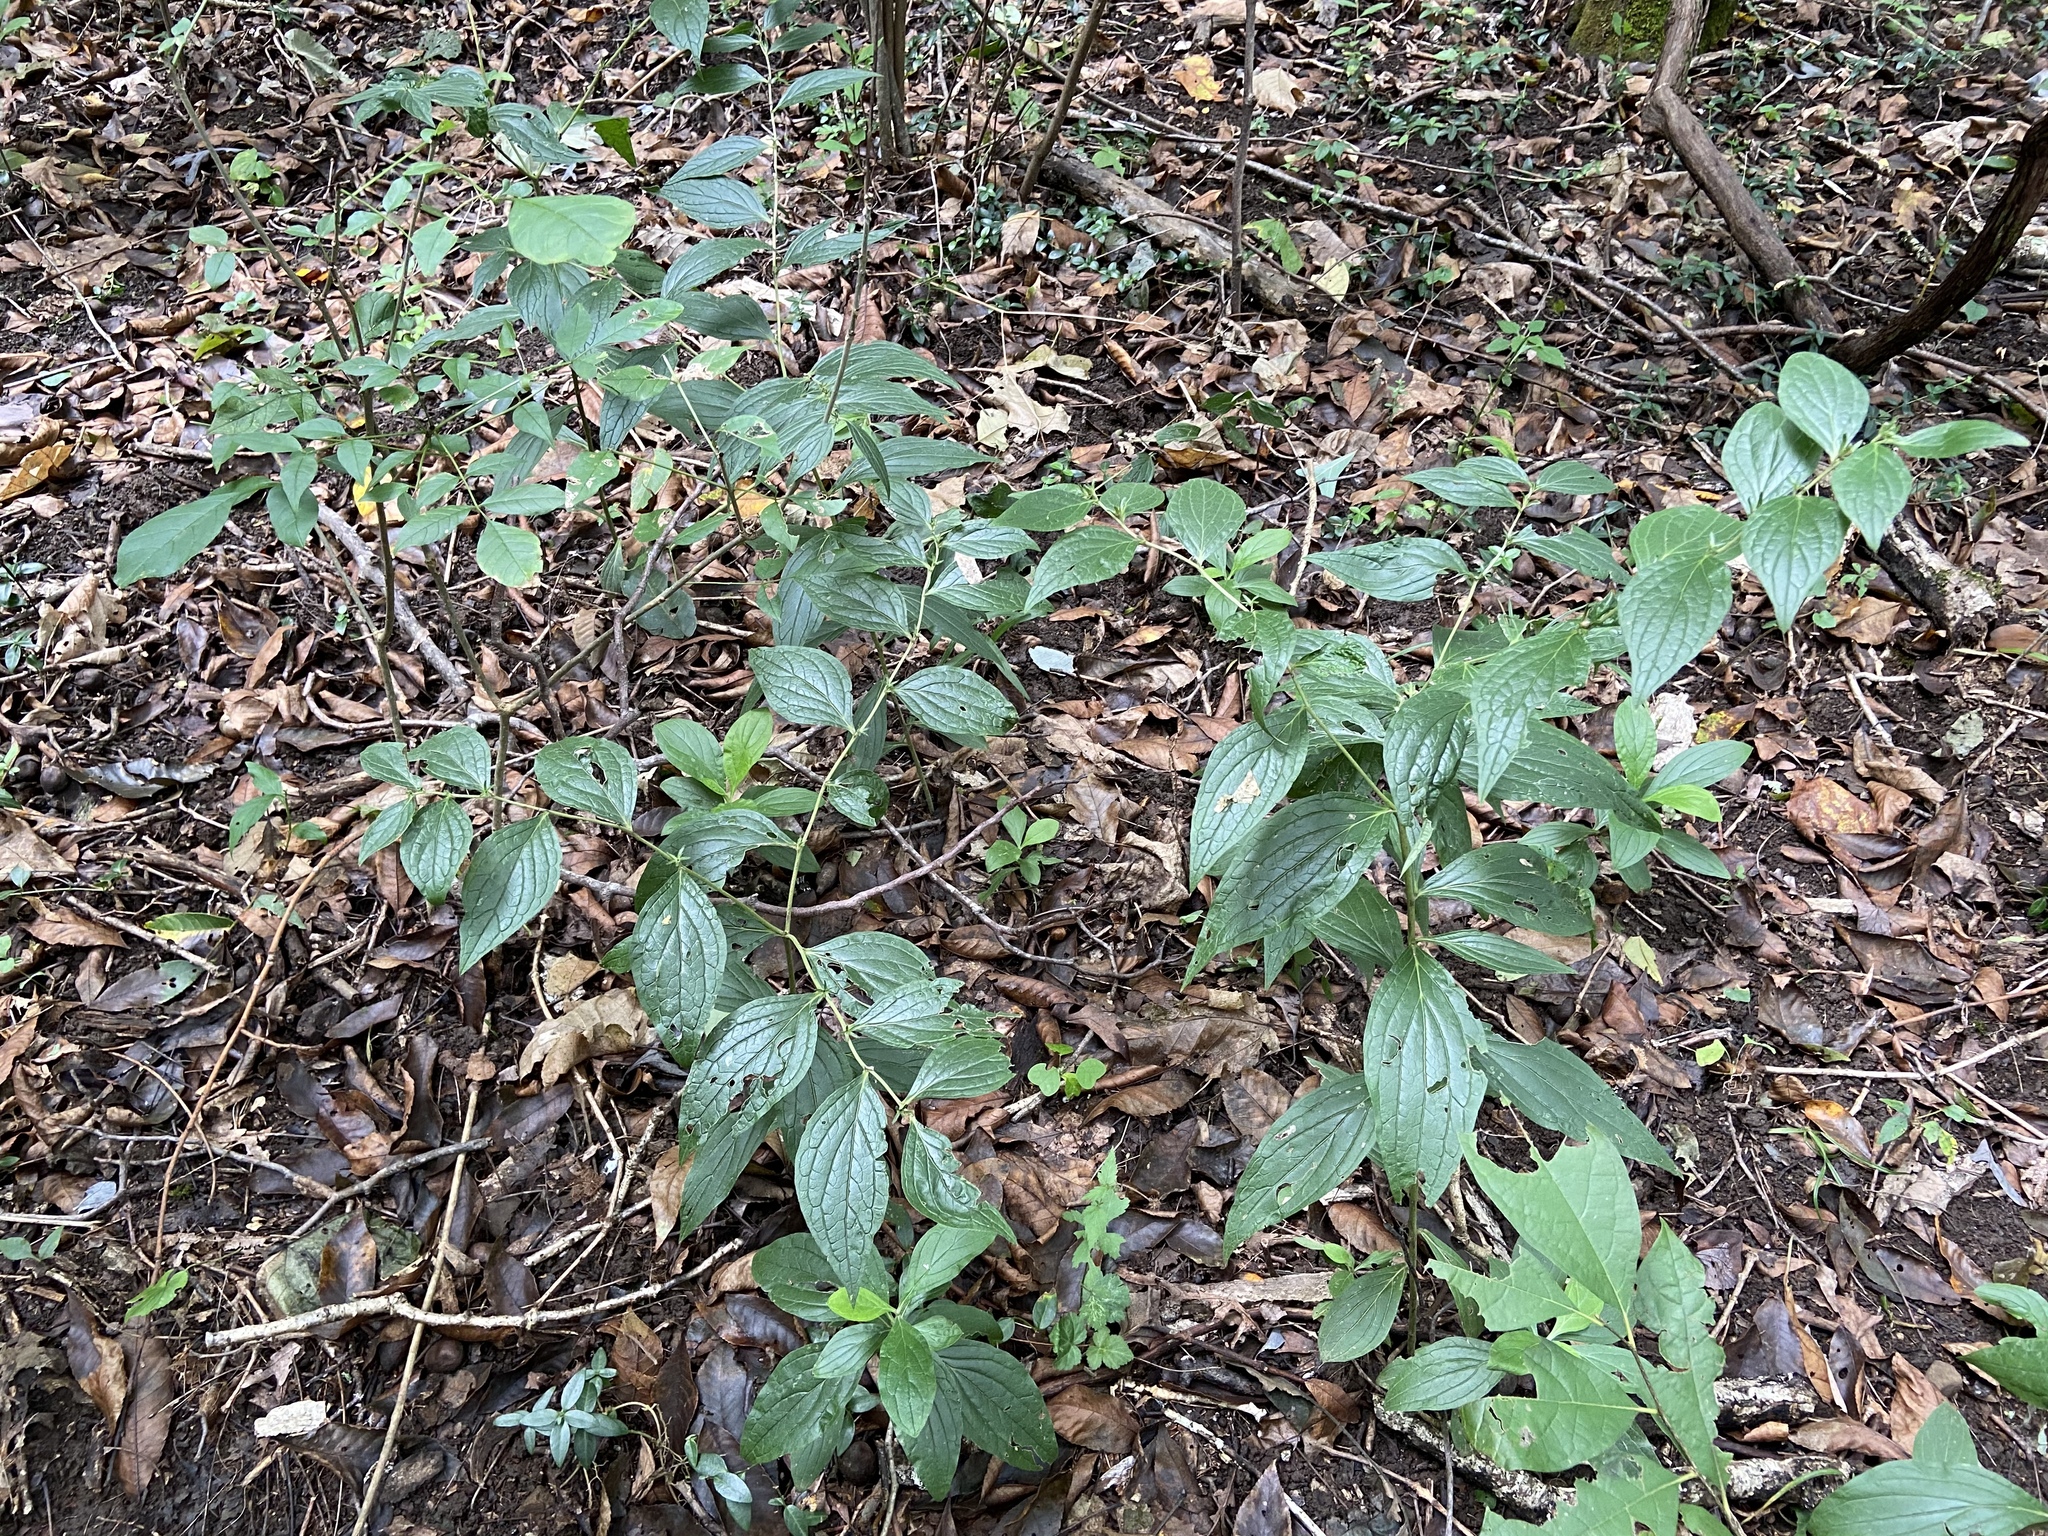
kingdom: Plantae
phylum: Tracheophyta
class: Magnoliopsida
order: Boraginales
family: Boraginaceae
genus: Lithospermum
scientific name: Lithospermum latifolium
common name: American gromwell
